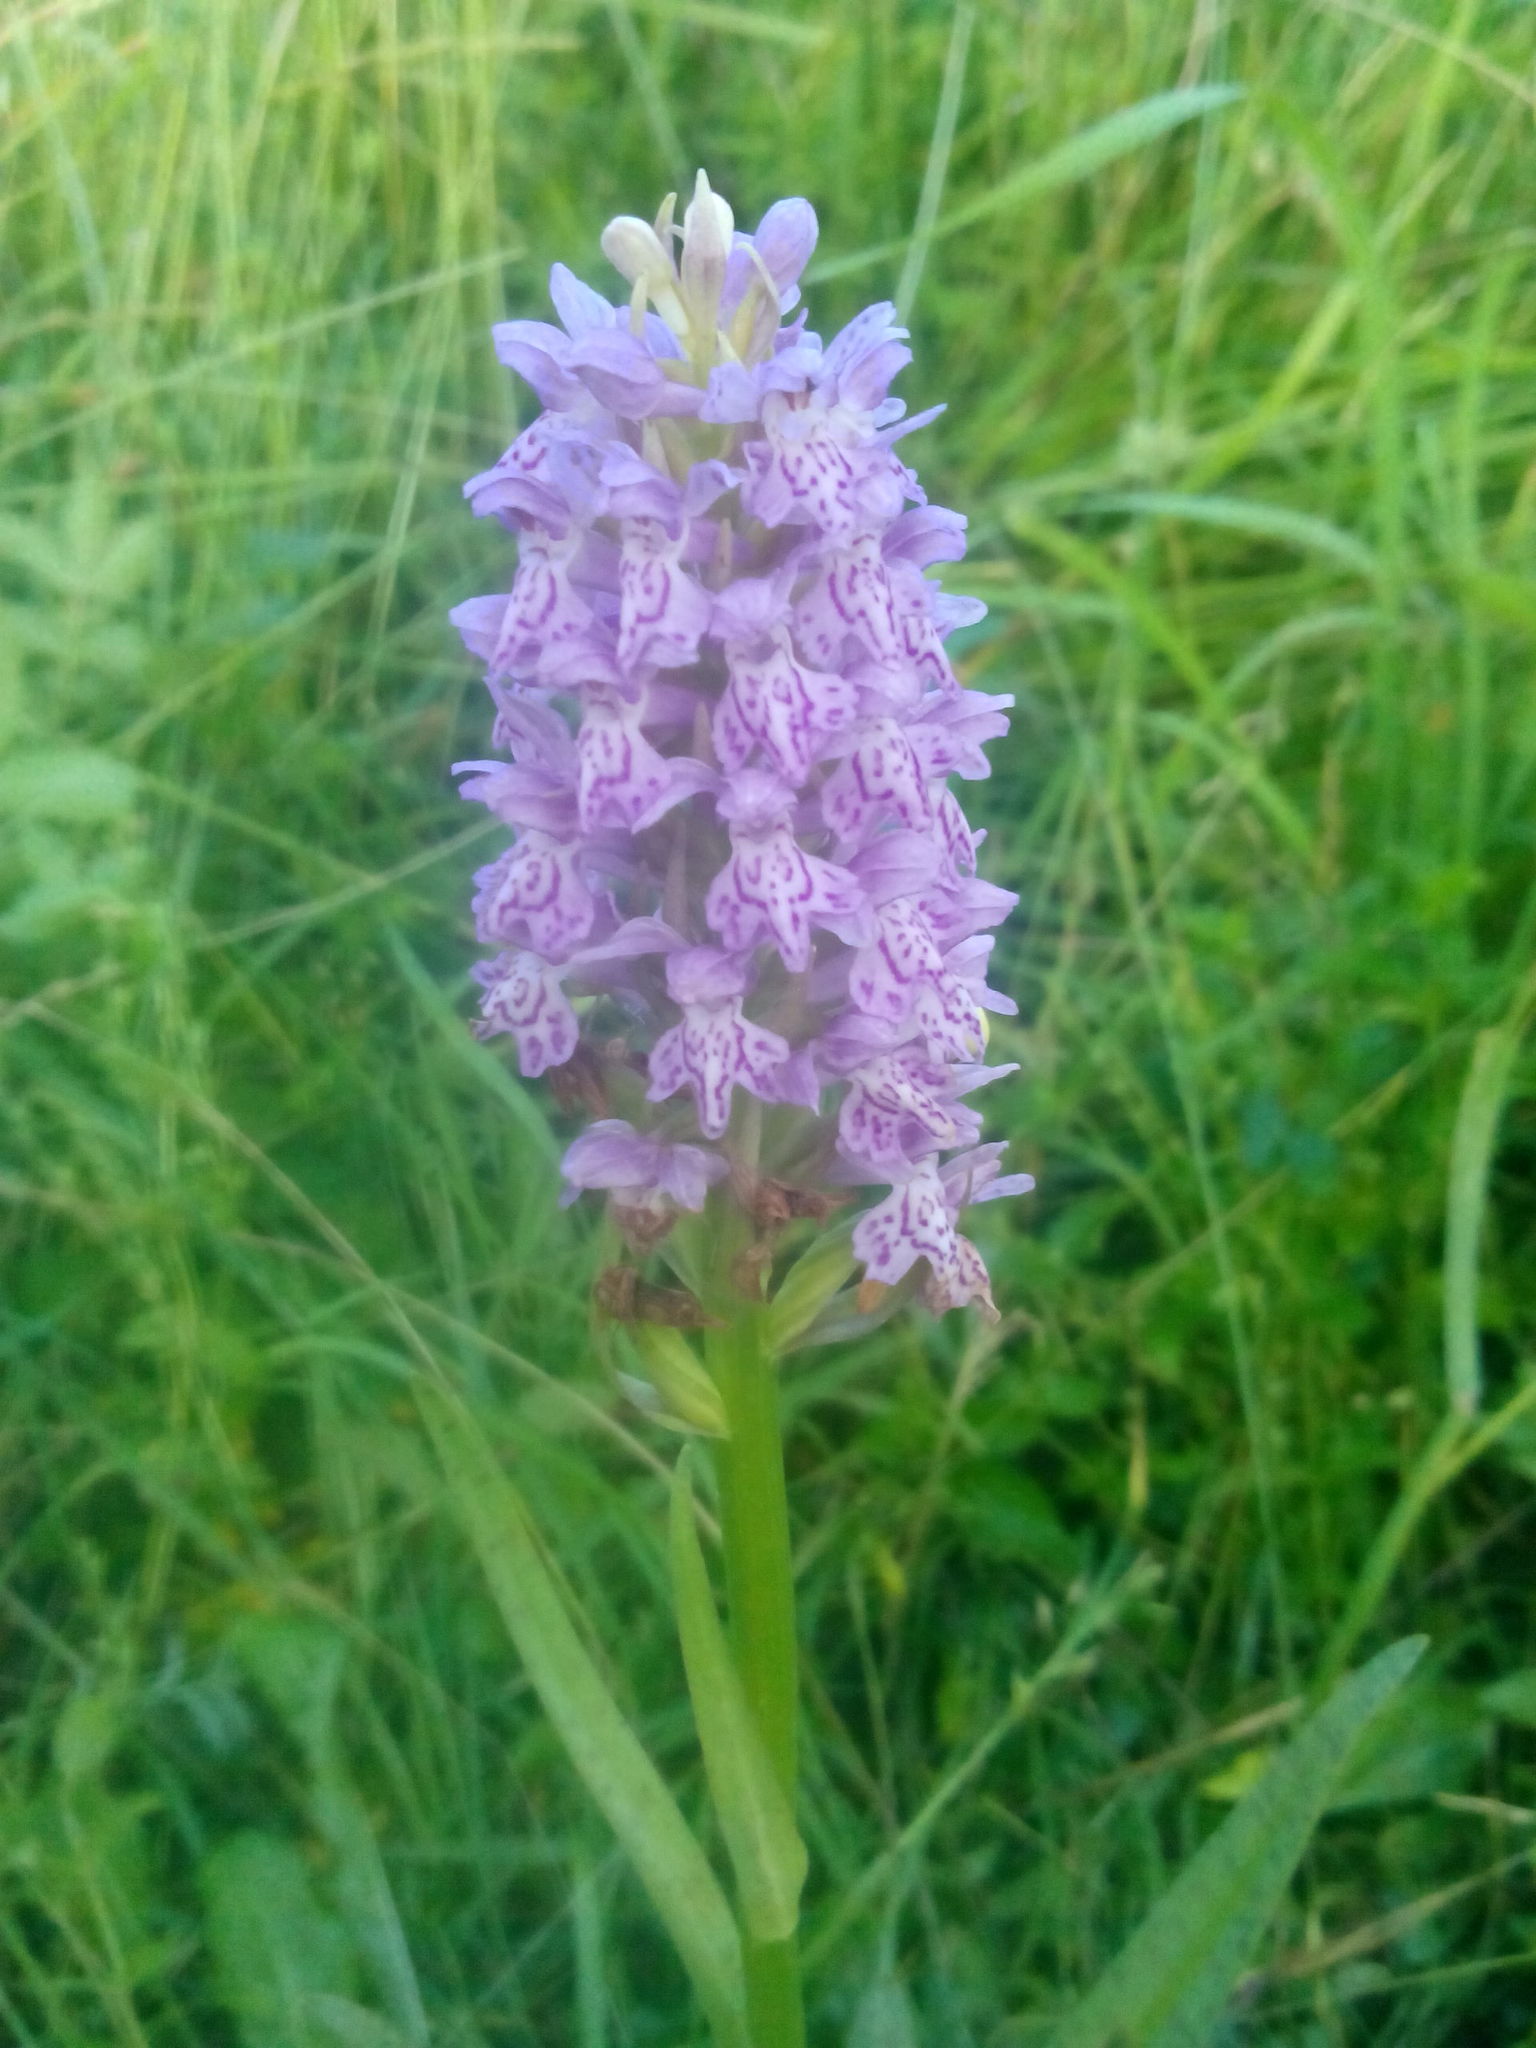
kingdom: Plantae
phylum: Tracheophyta
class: Liliopsida
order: Asparagales
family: Orchidaceae
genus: Dactylorhiza
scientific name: Dactylorhiza majalis
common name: Marsh orchid
